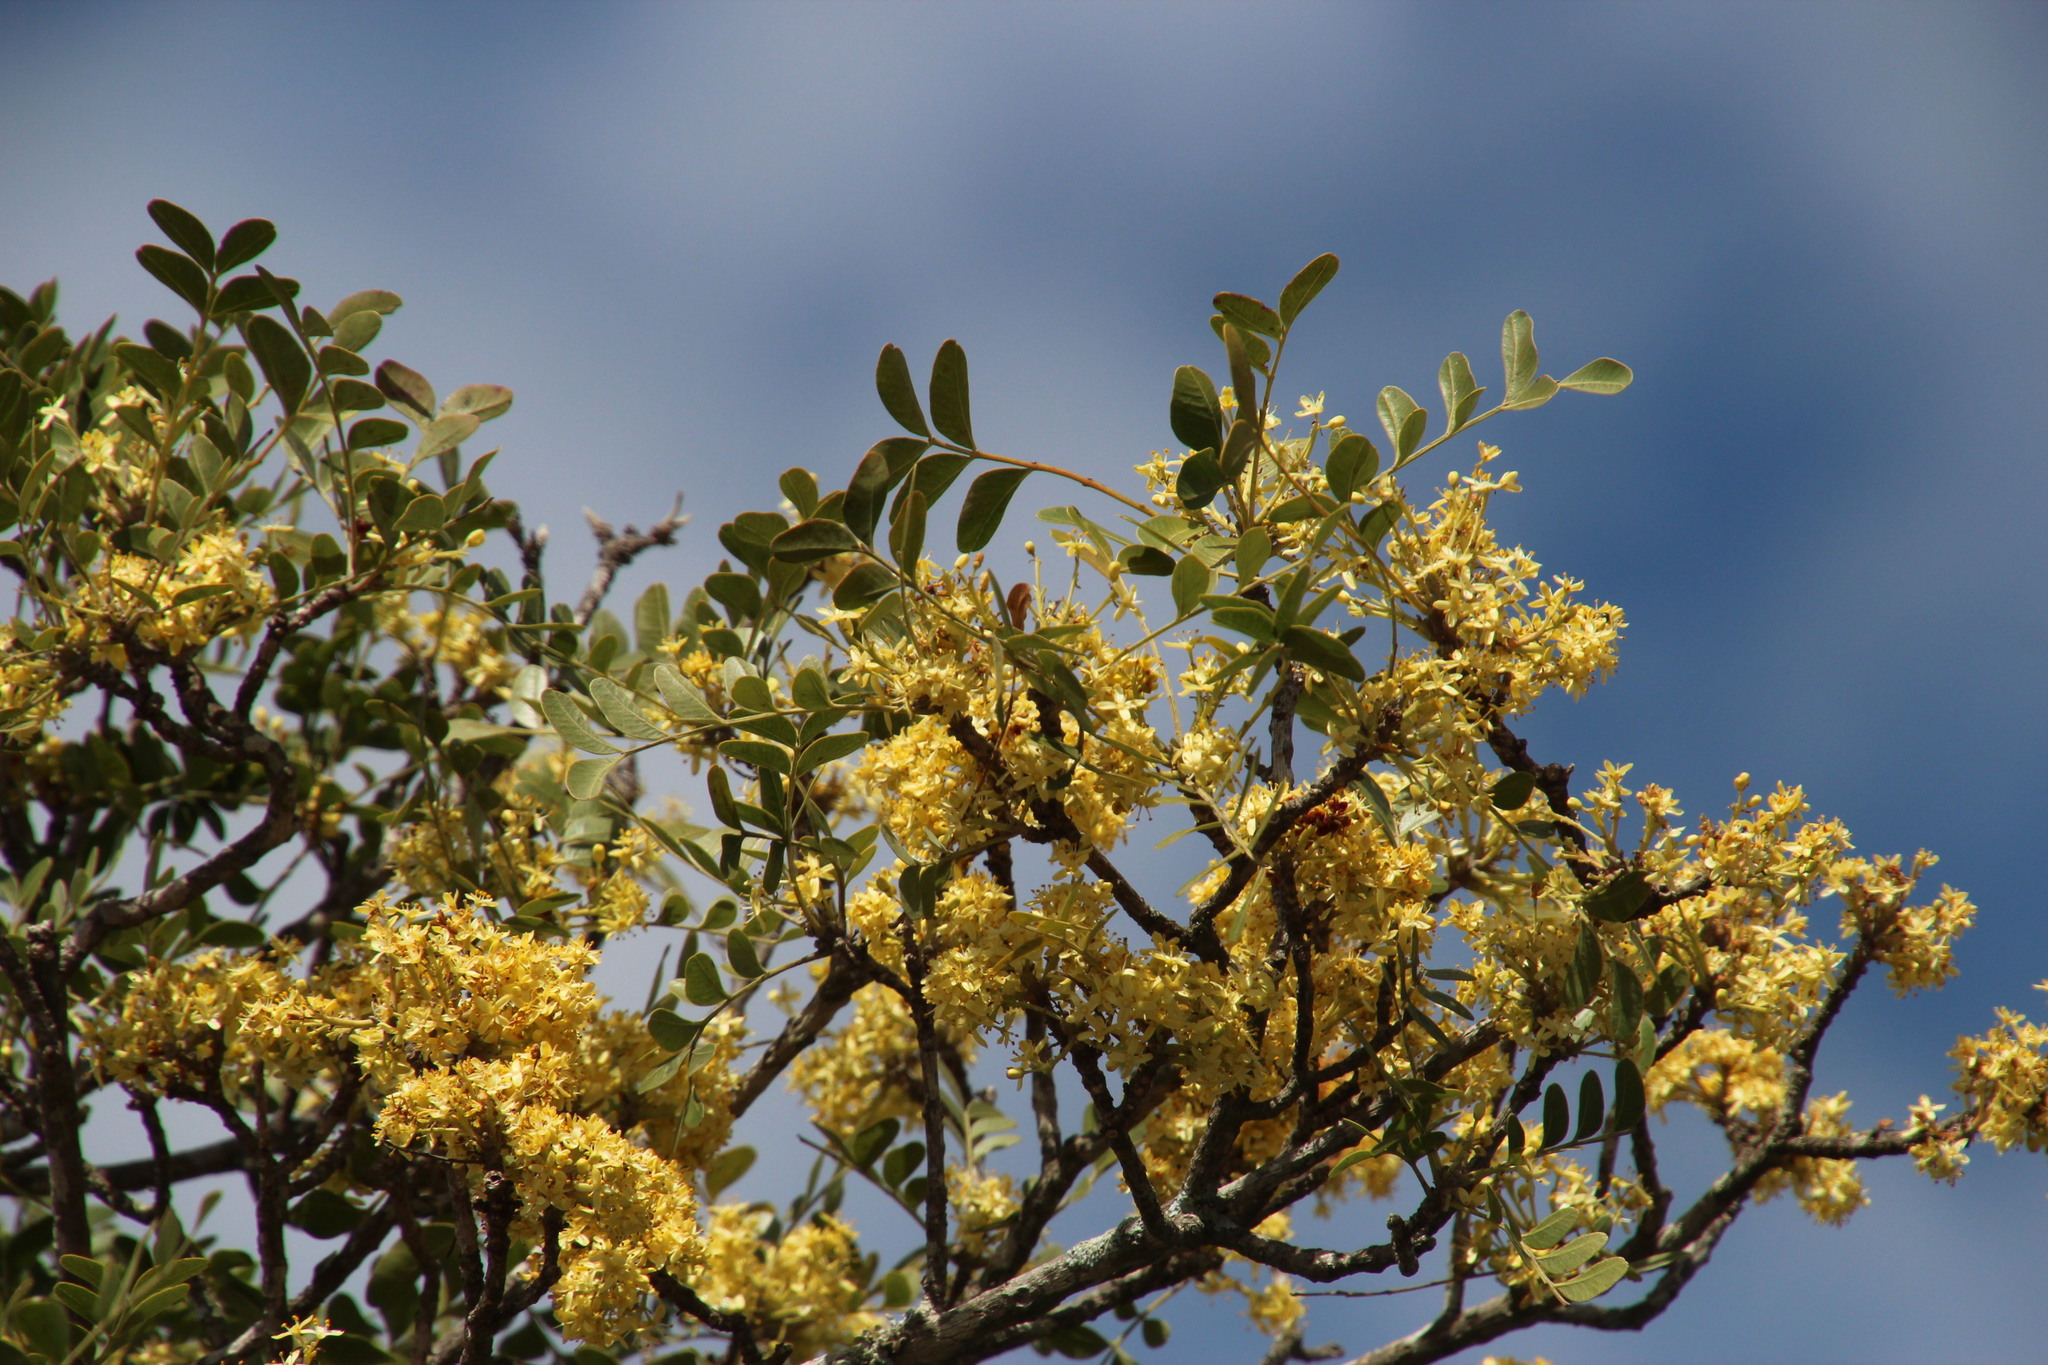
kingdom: Plantae
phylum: Tracheophyta
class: Magnoliopsida
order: Sapindales
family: Rutaceae
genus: Ptaeroxylon
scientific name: Ptaeroxylon obliquum
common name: Sneezewood
